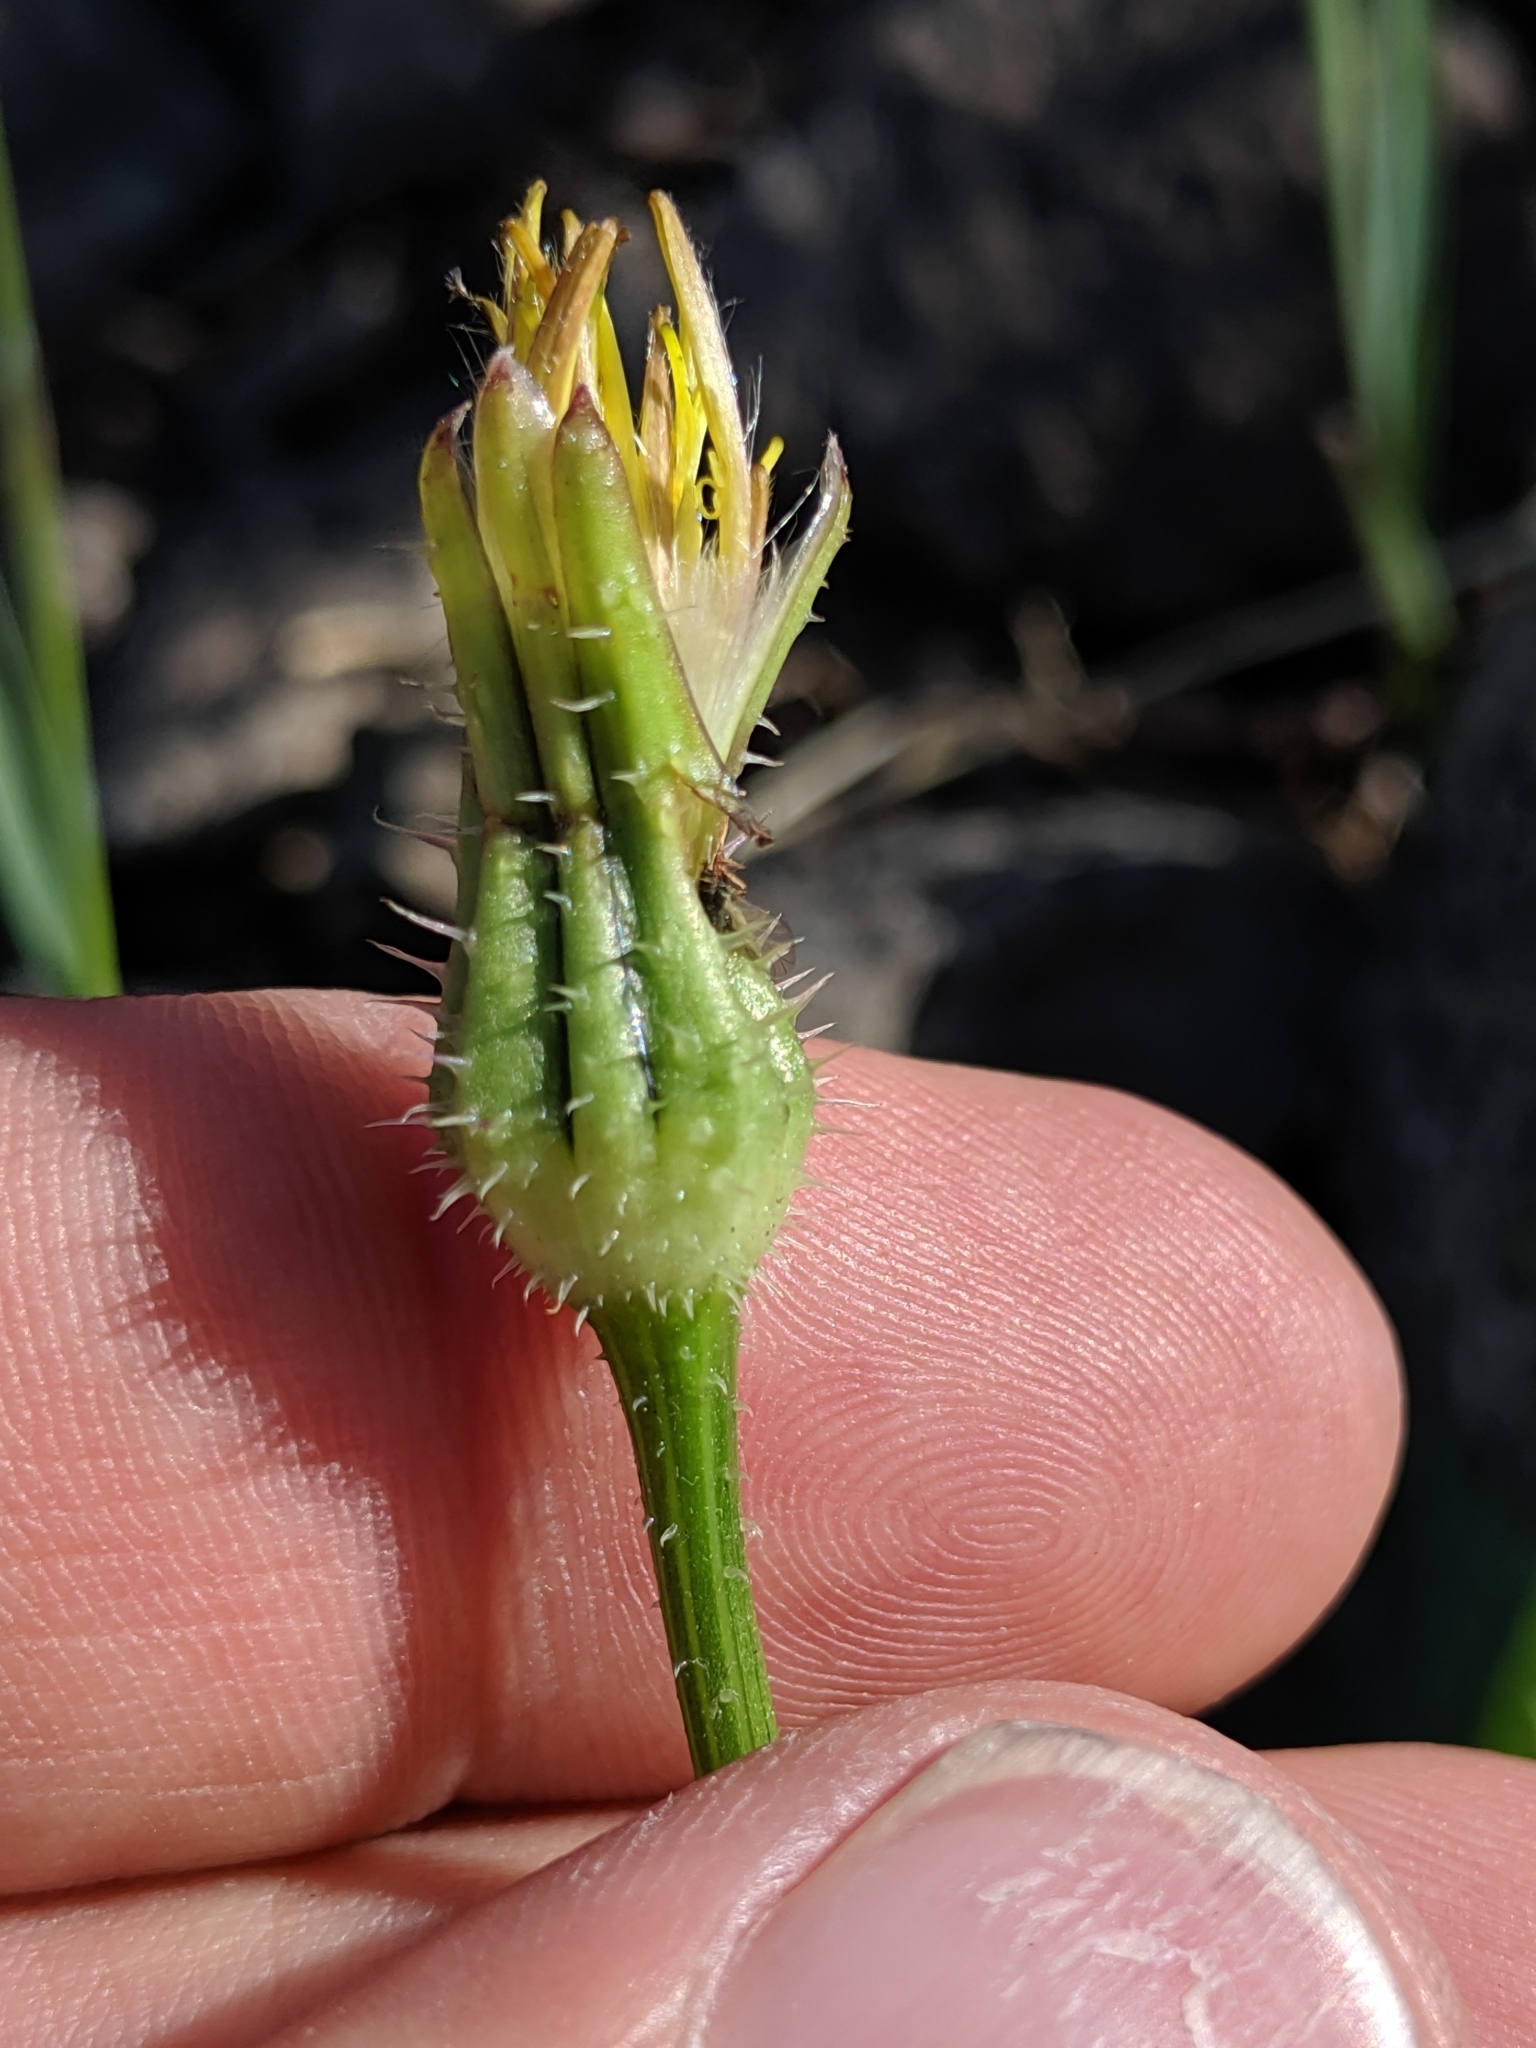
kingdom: Plantae
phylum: Tracheophyta
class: Magnoliopsida
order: Asterales
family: Asteraceae
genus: Urospermum
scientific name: Urospermum picroides
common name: False hawkbit
